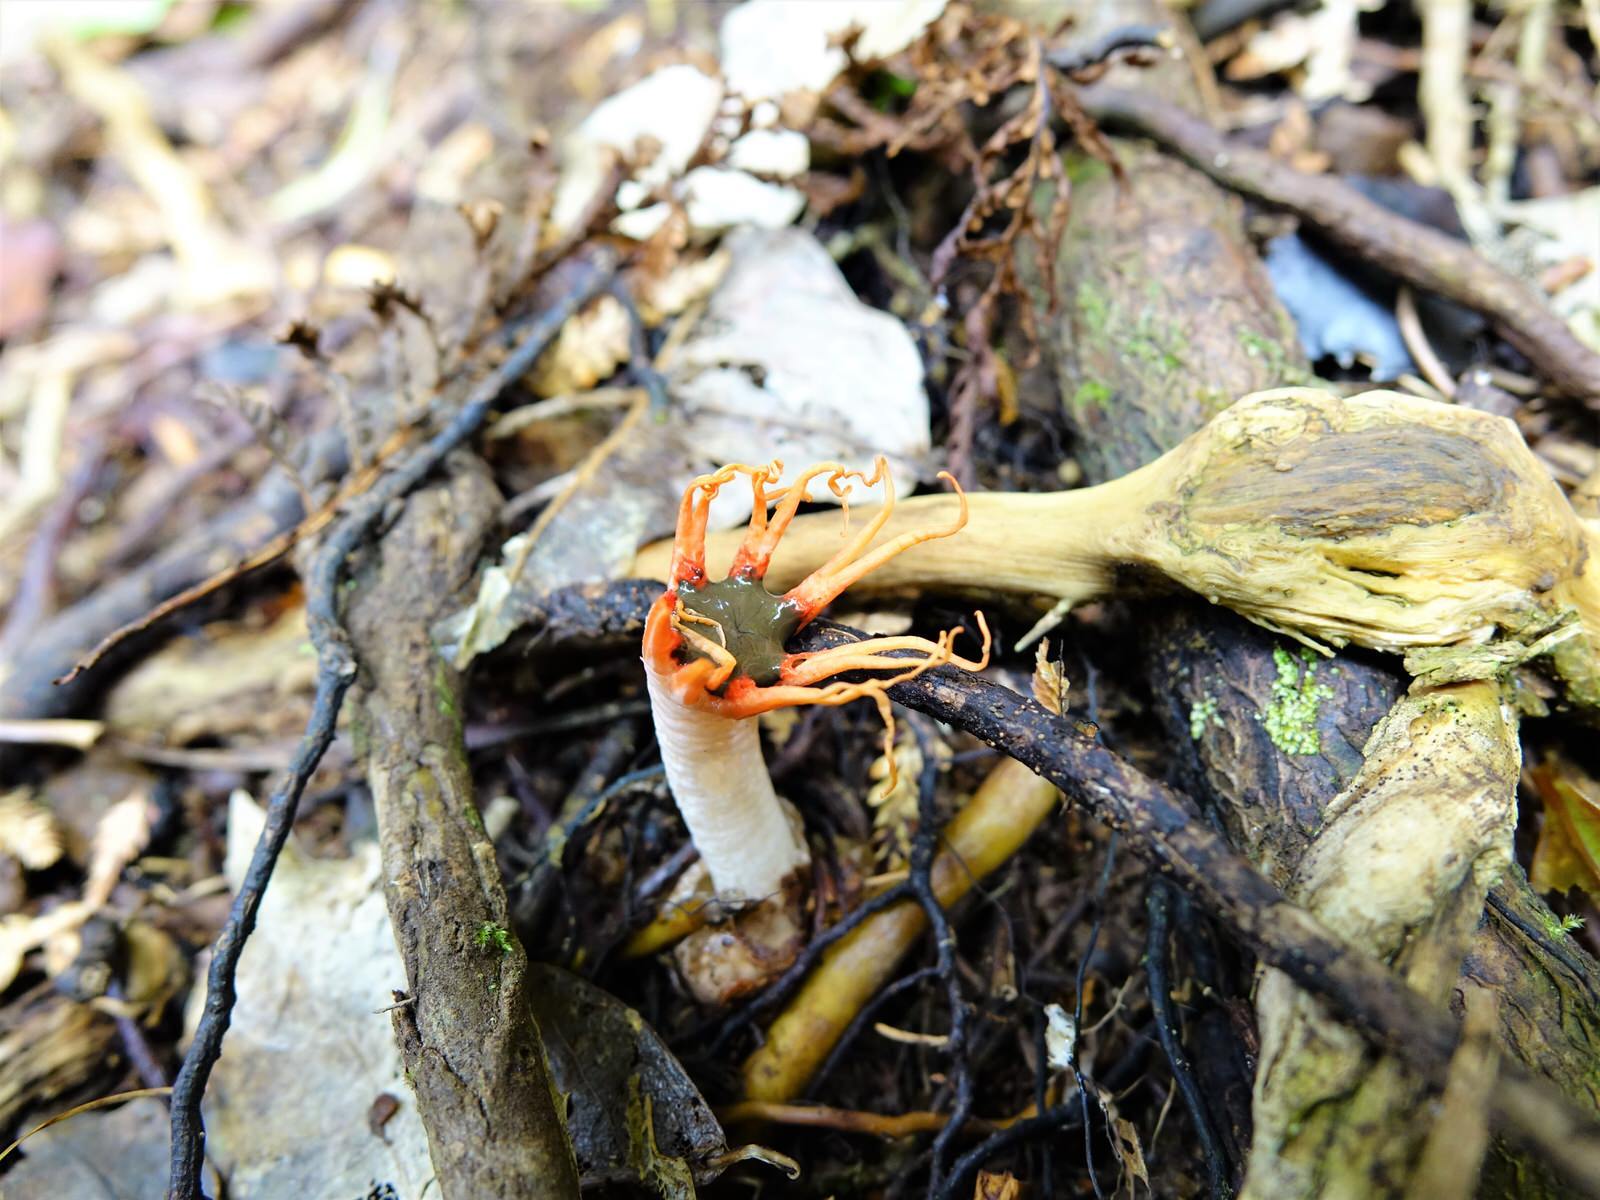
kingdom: Fungi
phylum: Basidiomycota
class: Agaricomycetes
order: Phallales
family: Phallaceae
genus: Aseroe
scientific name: Aseroe rubra
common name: Starfish fungus
